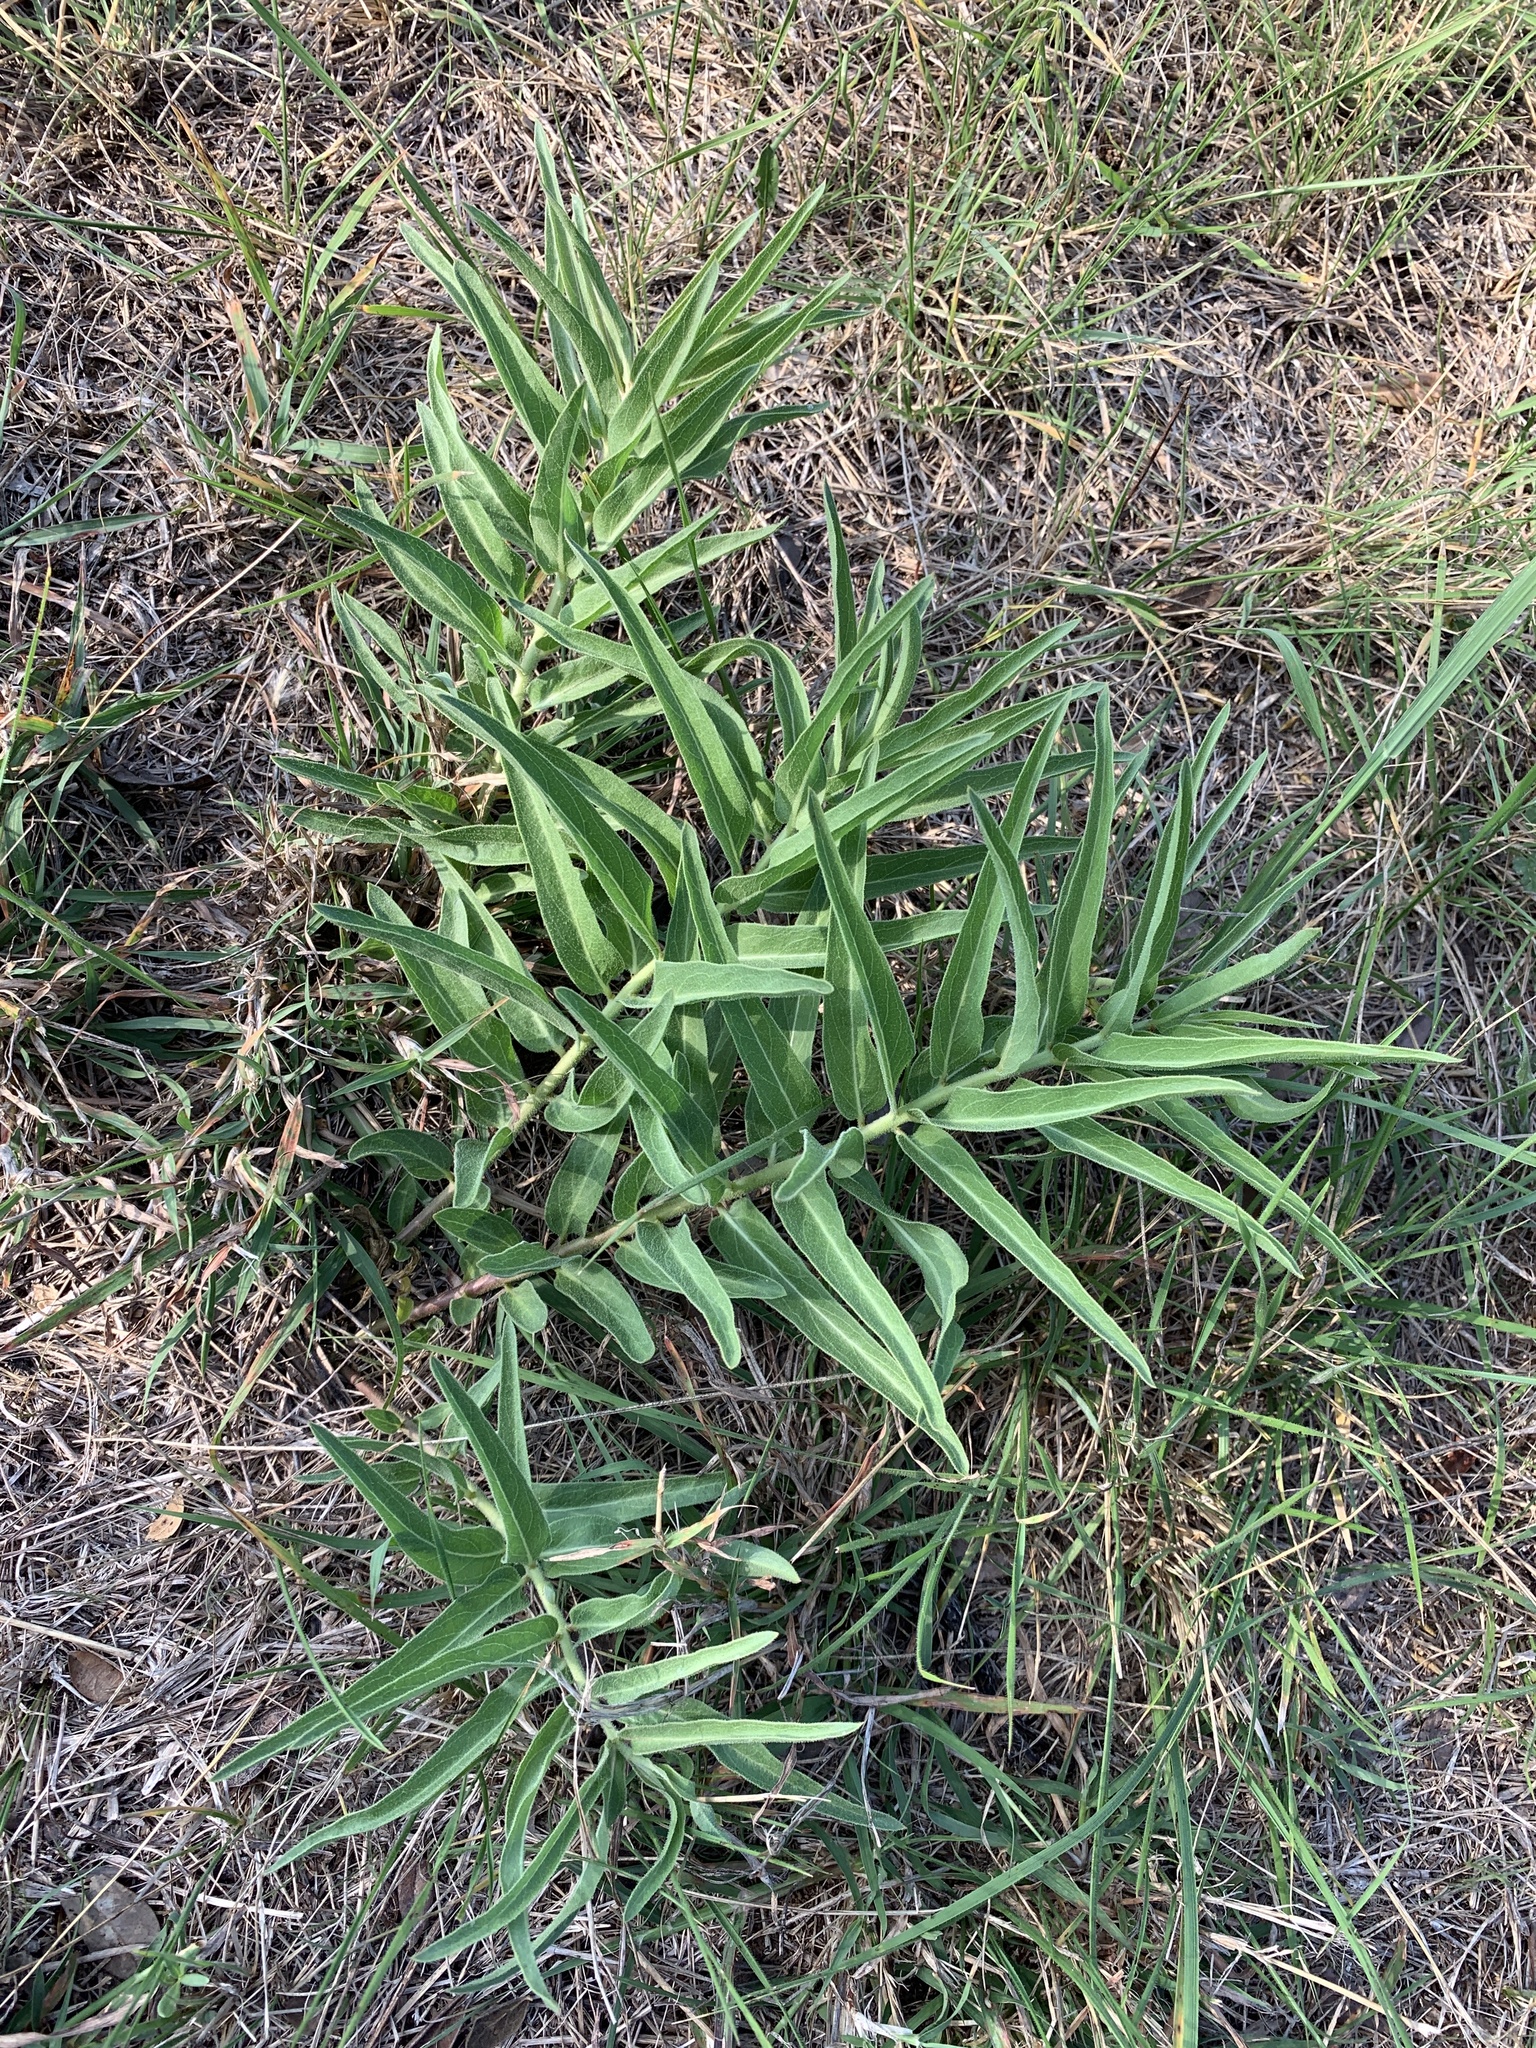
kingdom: Plantae
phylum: Tracheophyta
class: Magnoliopsida
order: Gentianales
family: Apocynaceae
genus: Asclepias
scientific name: Asclepias asperula
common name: Antelope horns
